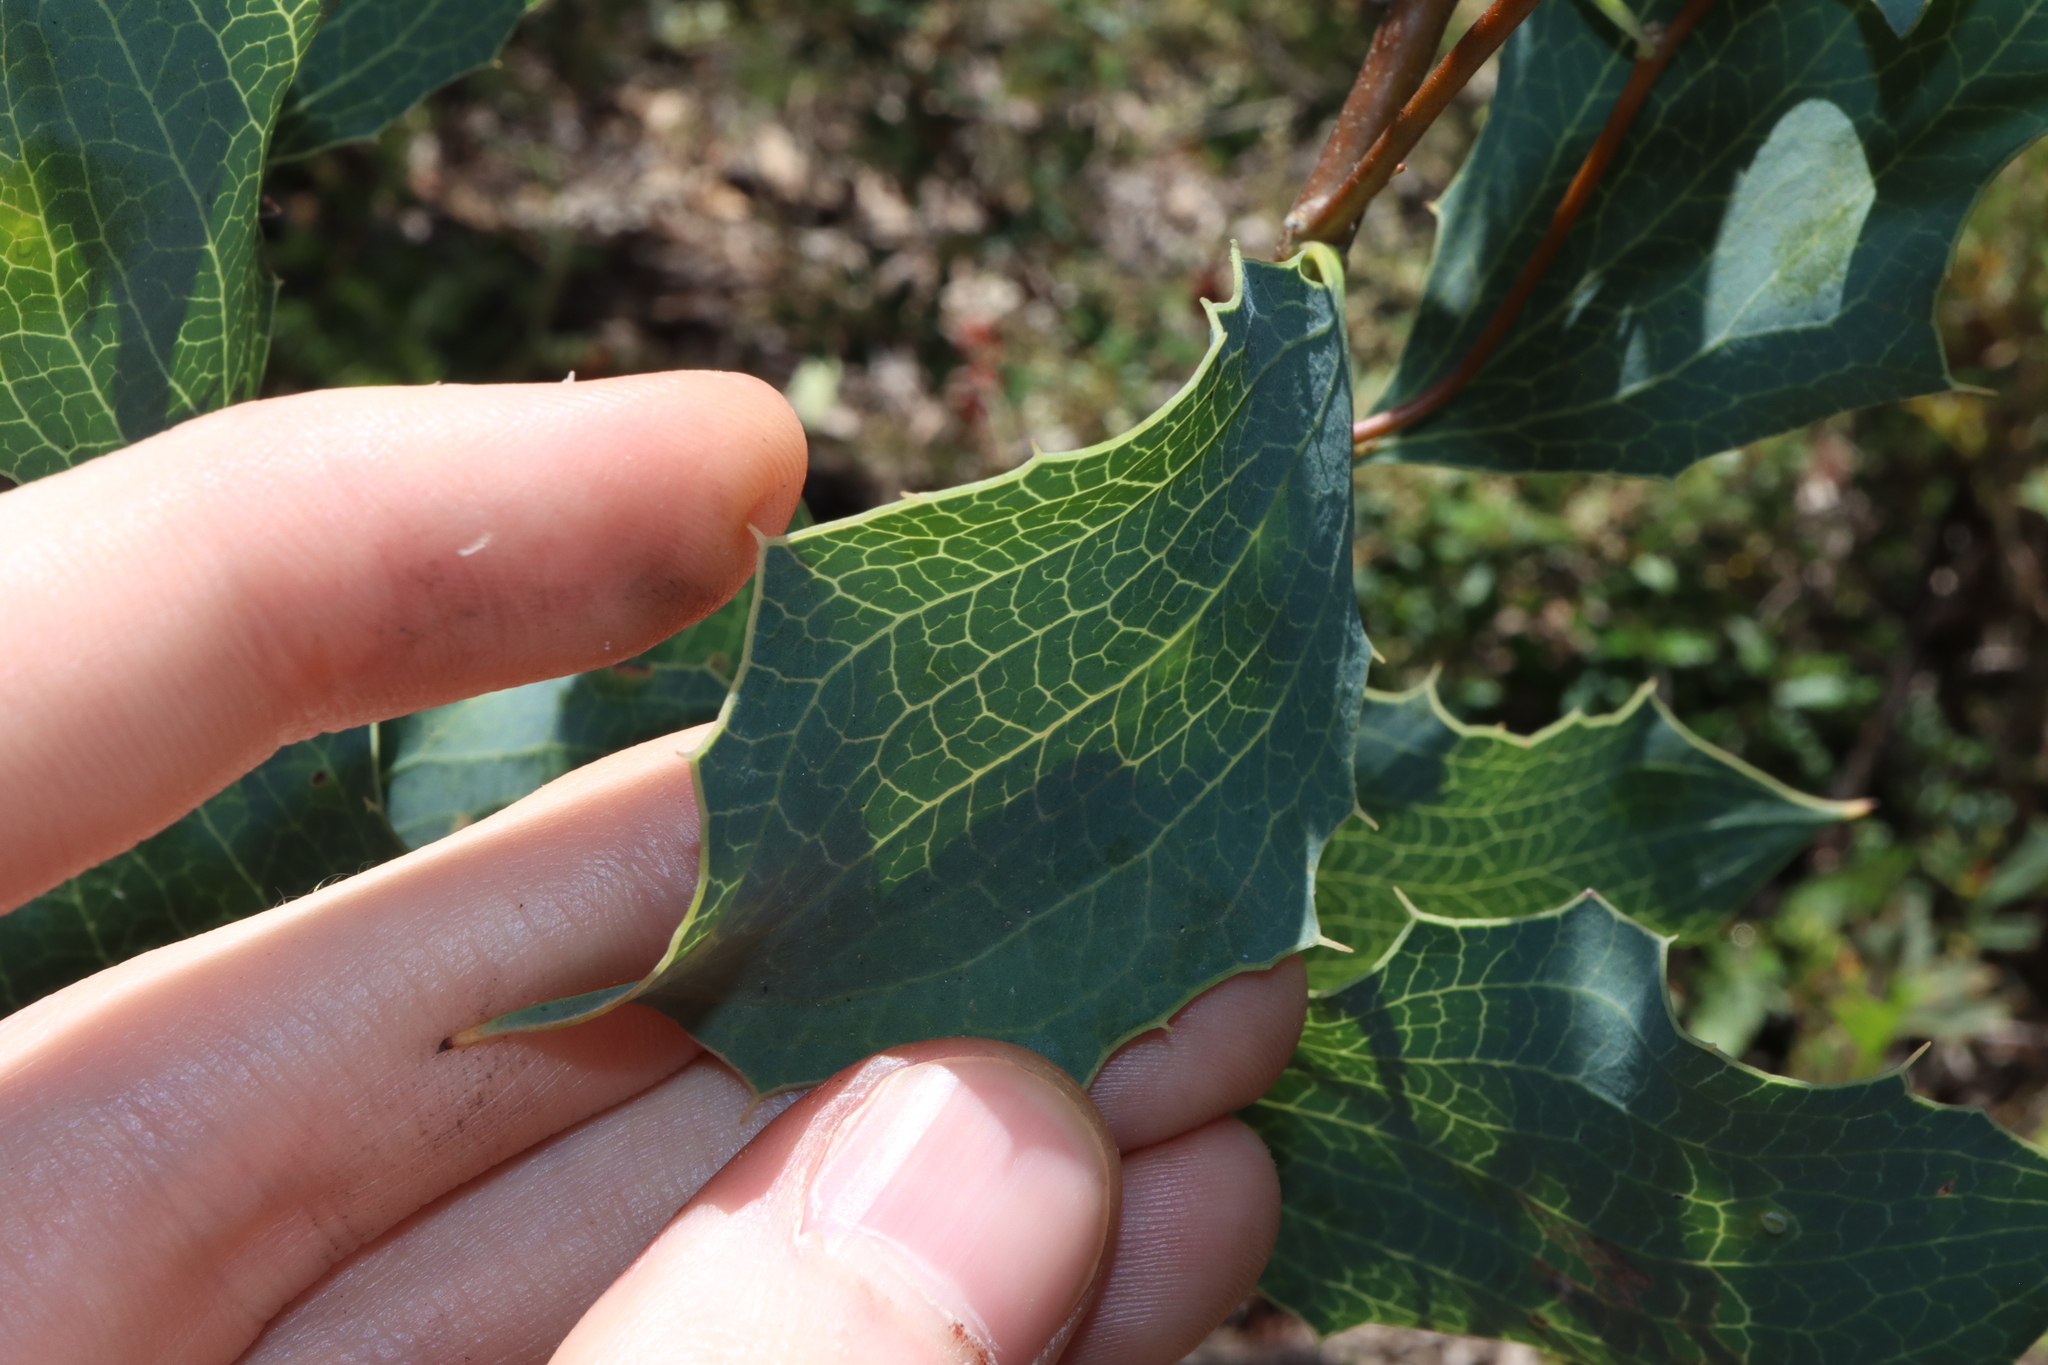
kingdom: Plantae
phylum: Tracheophyta
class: Magnoliopsida
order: Proteales
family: Proteaceae
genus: Hakea
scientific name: Hakea undulata
